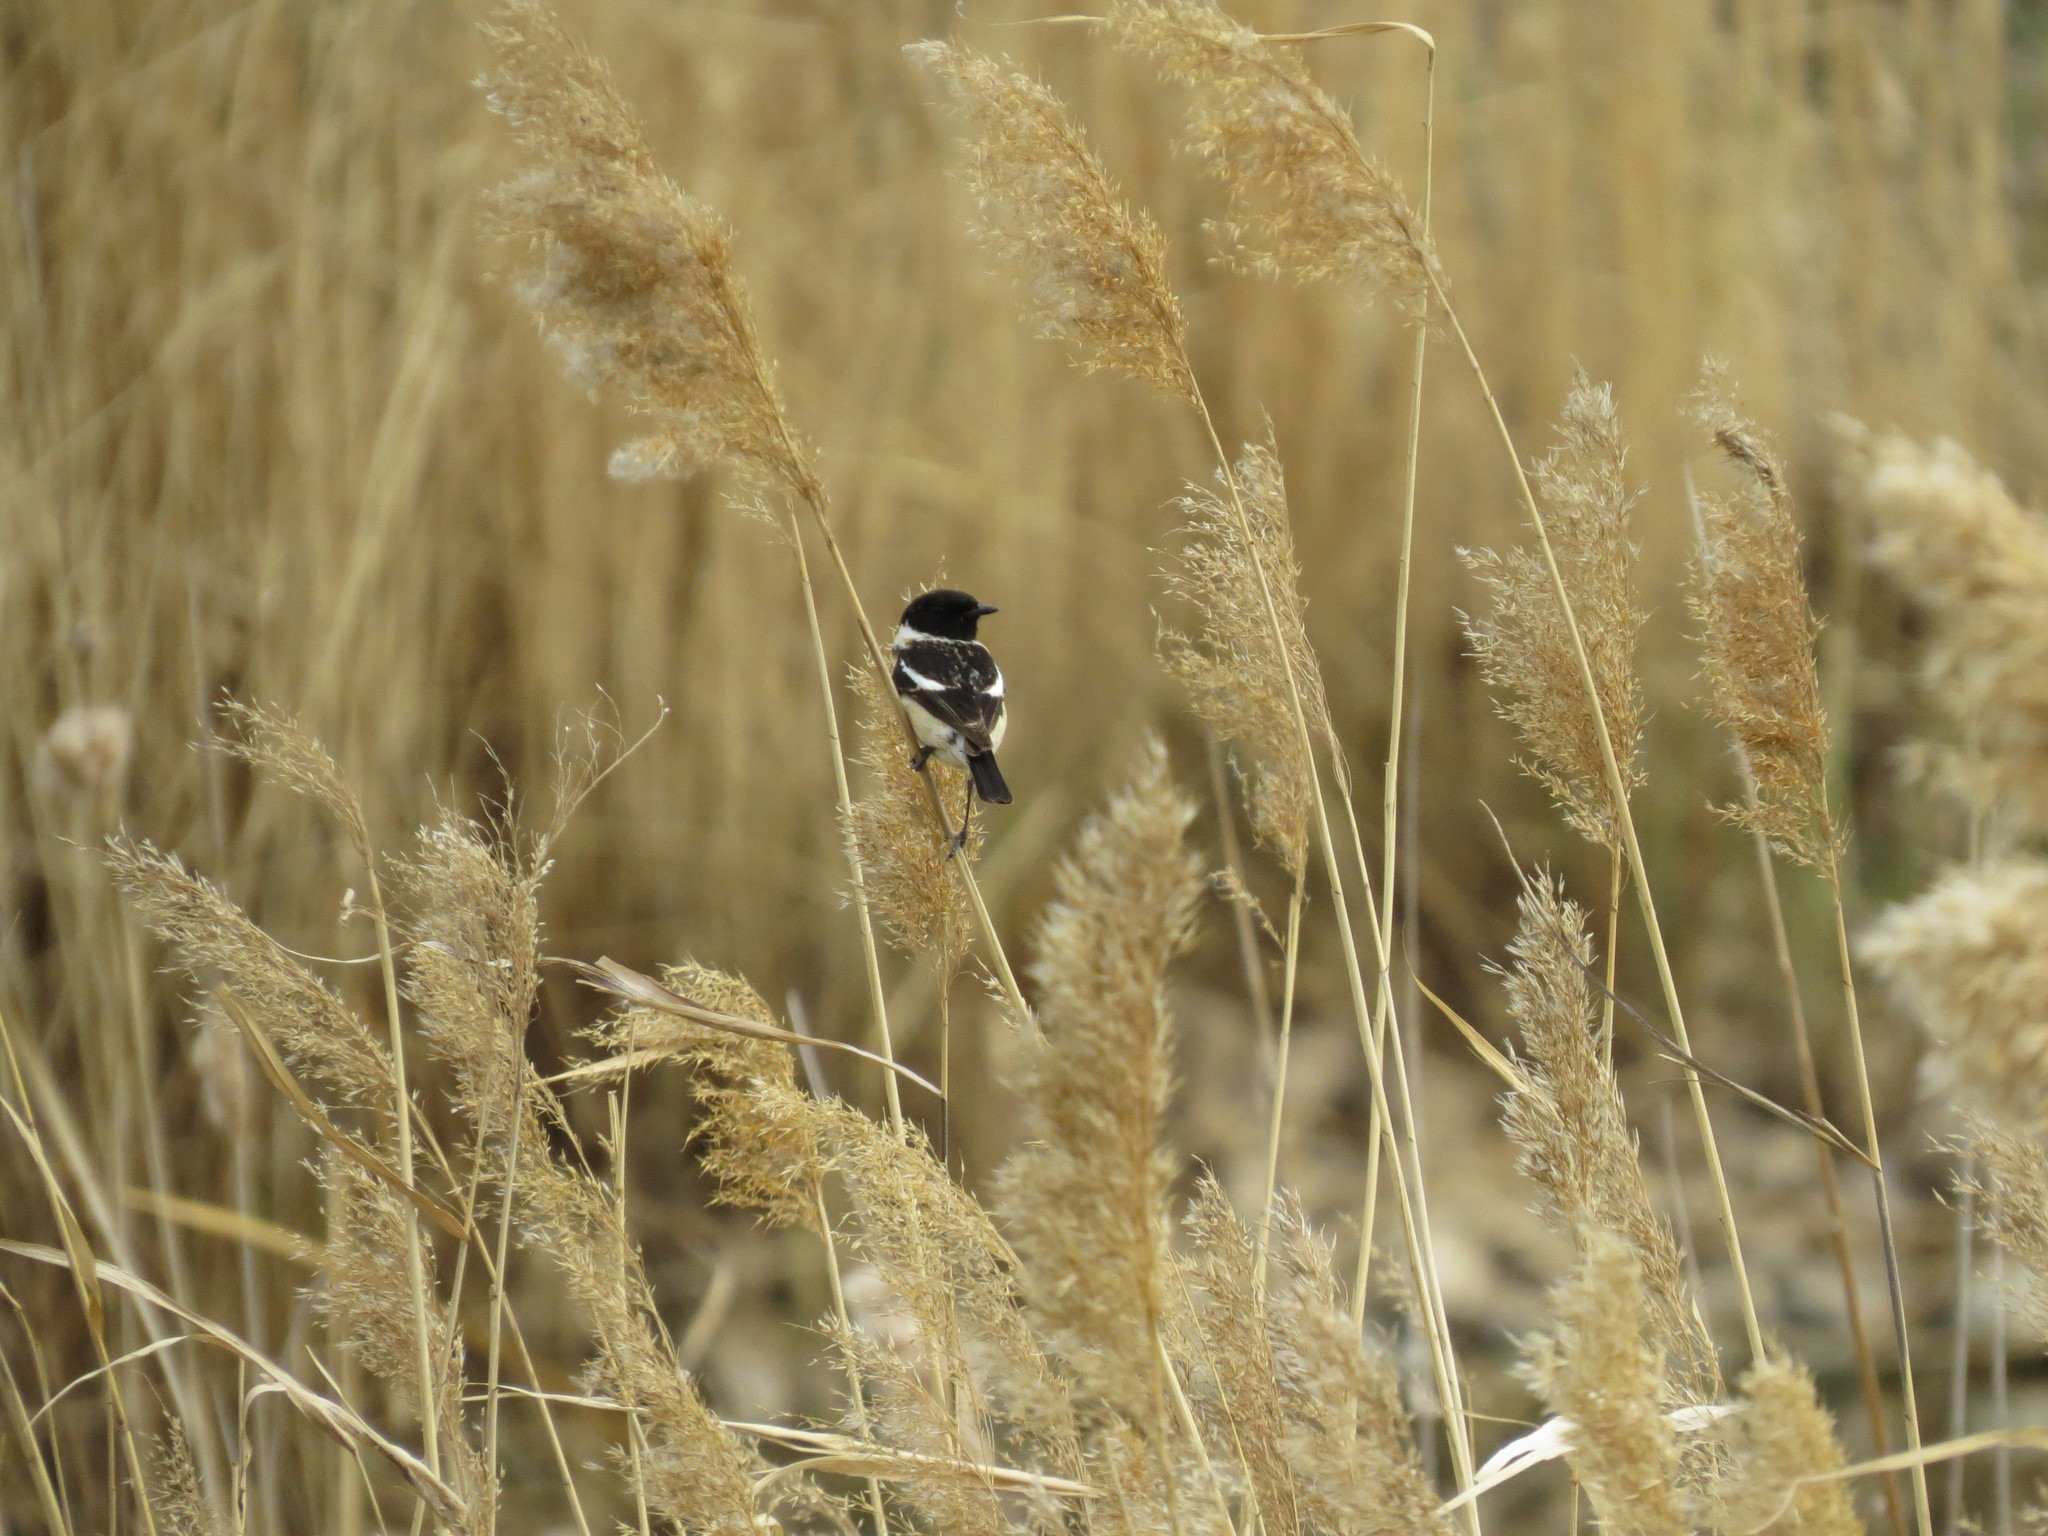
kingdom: Animalia
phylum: Chordata
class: Aves
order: Passeriformes
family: Muscicapidae
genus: Saxicola
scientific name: Saxicola maurus
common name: Siberian stonechat
